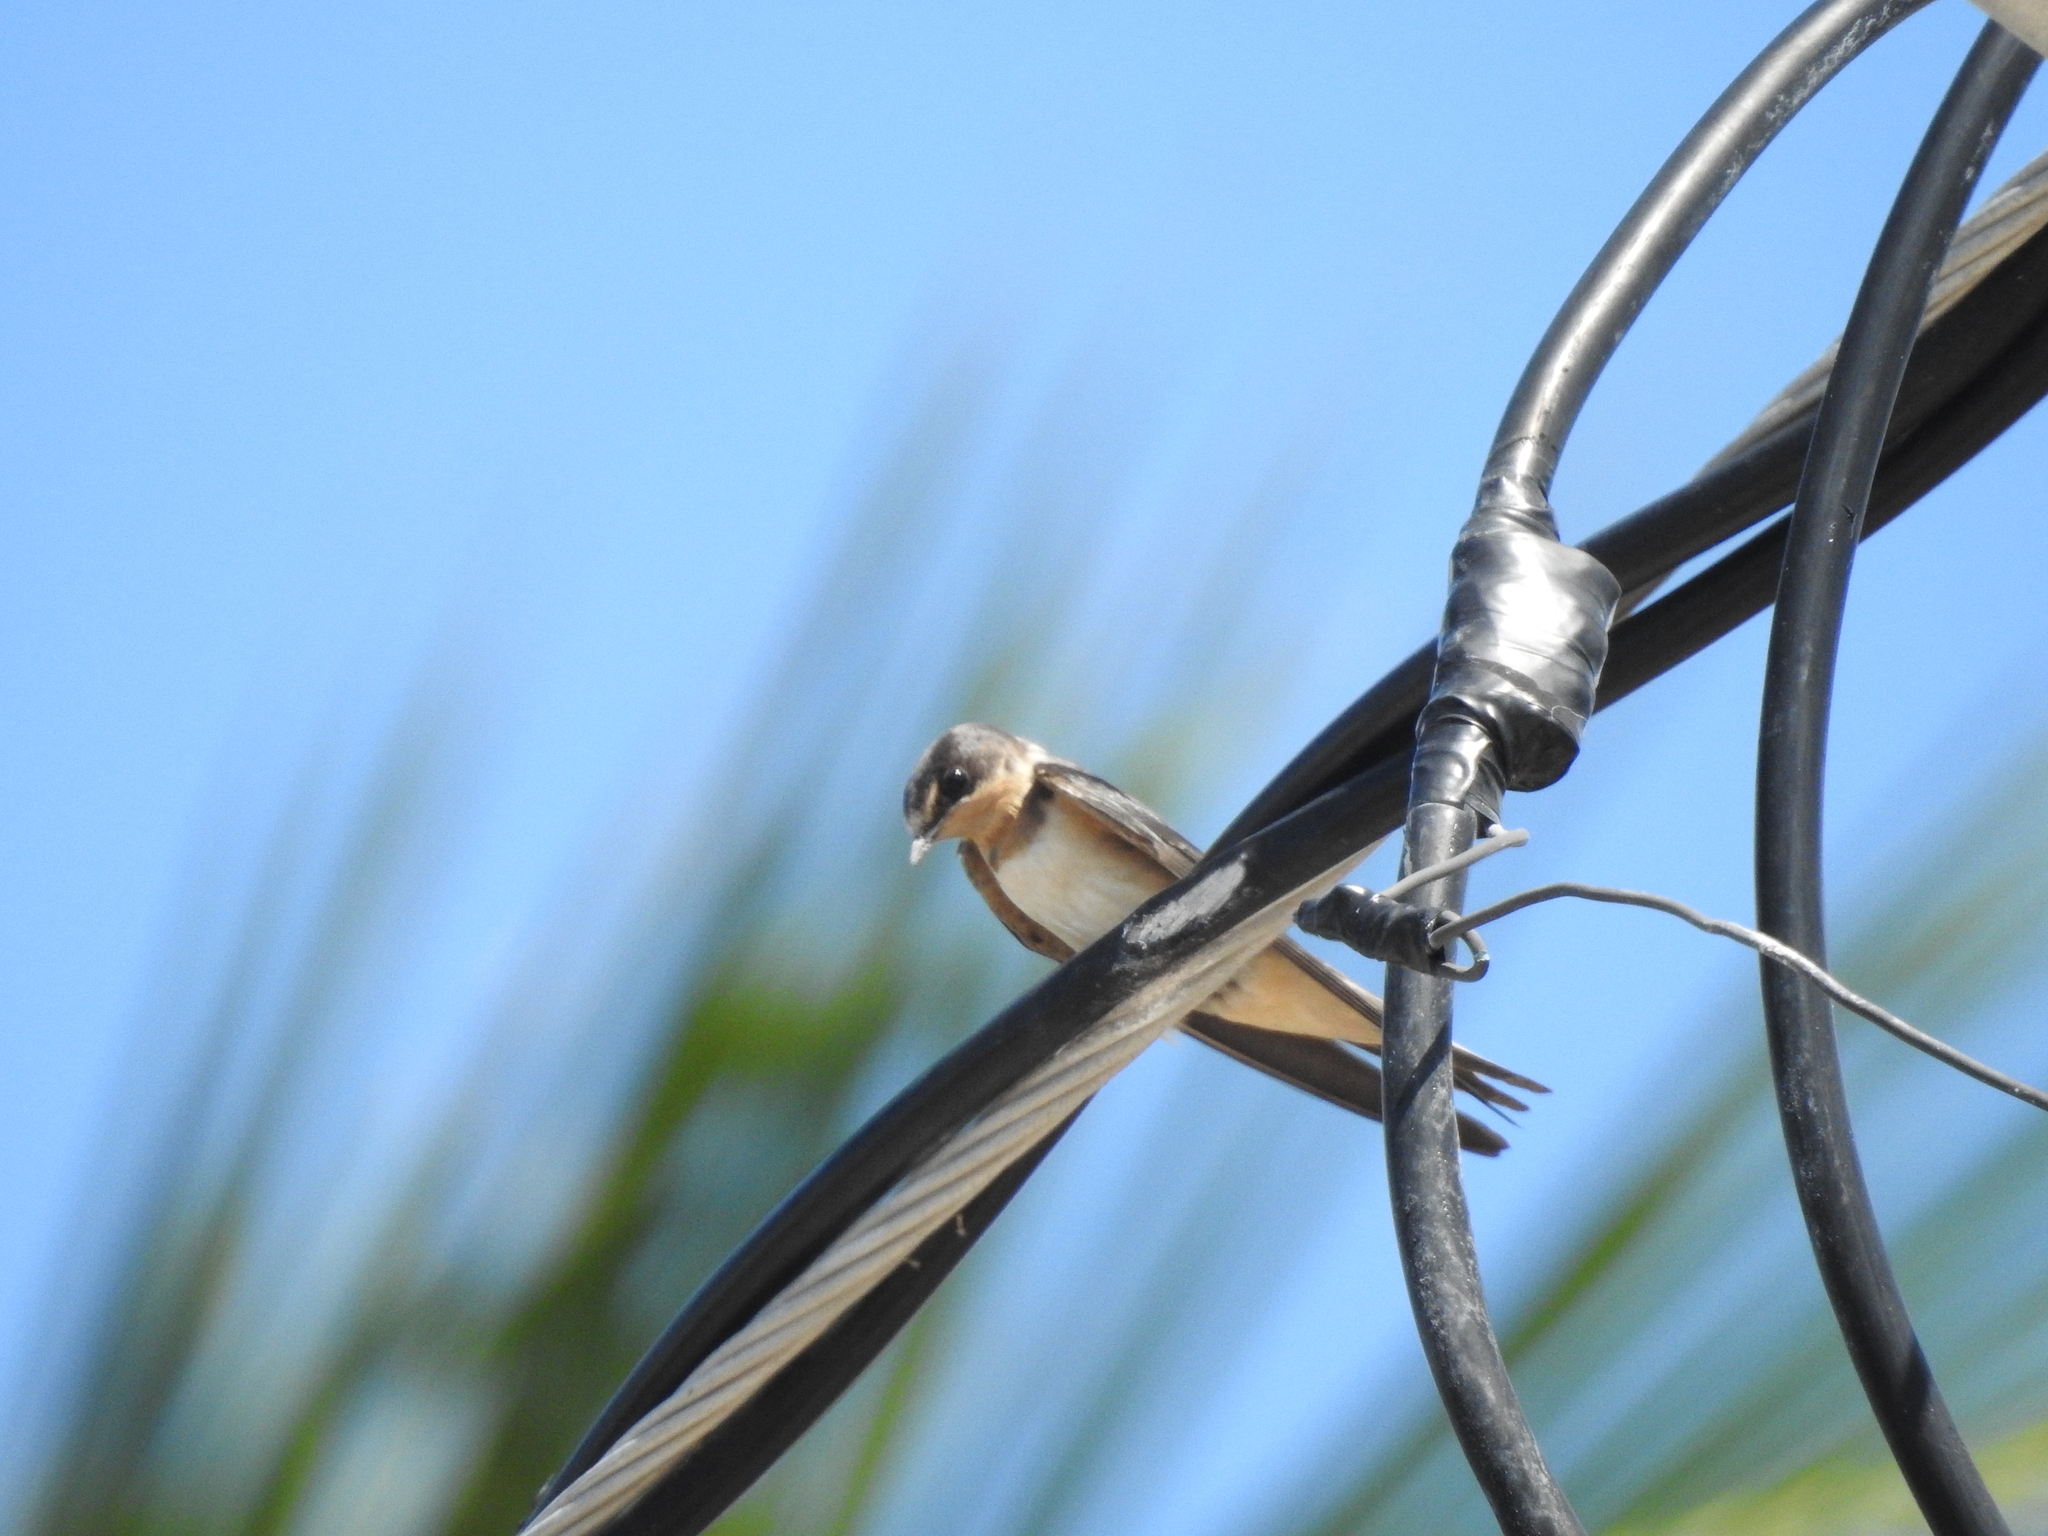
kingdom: Animalia
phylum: Chordata
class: Aves
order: Passeriformes
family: Hirundinidae
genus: Hirundo
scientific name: Hirundo rustica
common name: Barn swallow
